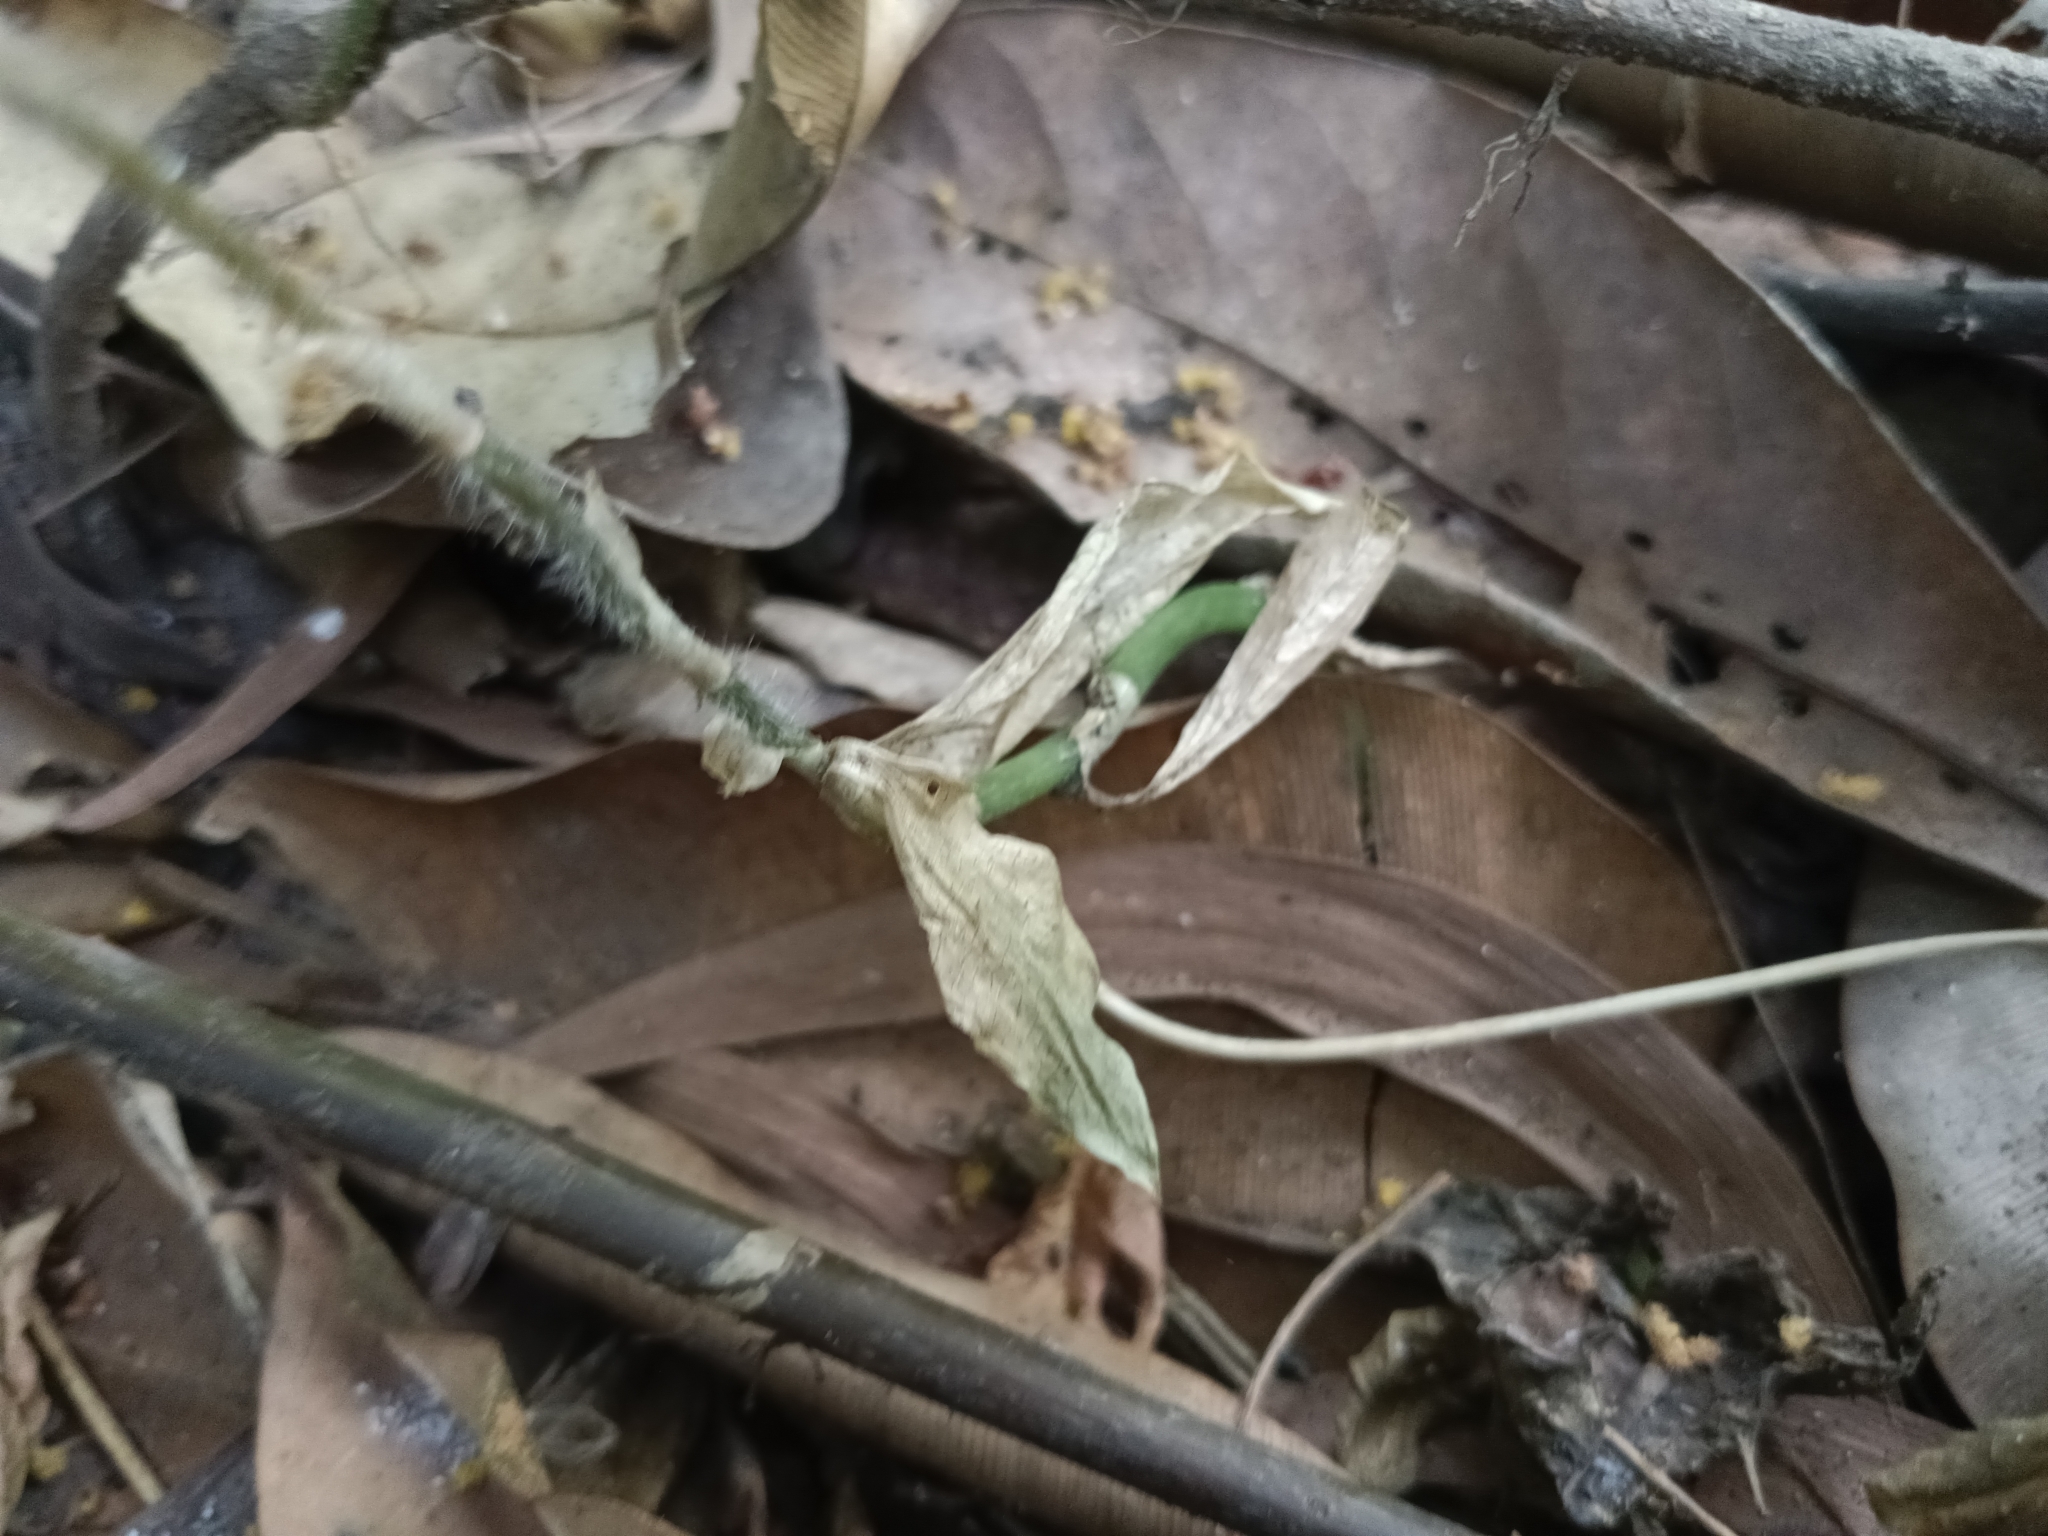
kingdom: Plantae
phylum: Tracheophyta
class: Liliopsida
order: Asparagales
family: Orchidaceae
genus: Zeuxine
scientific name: Zeuxine longilabris
